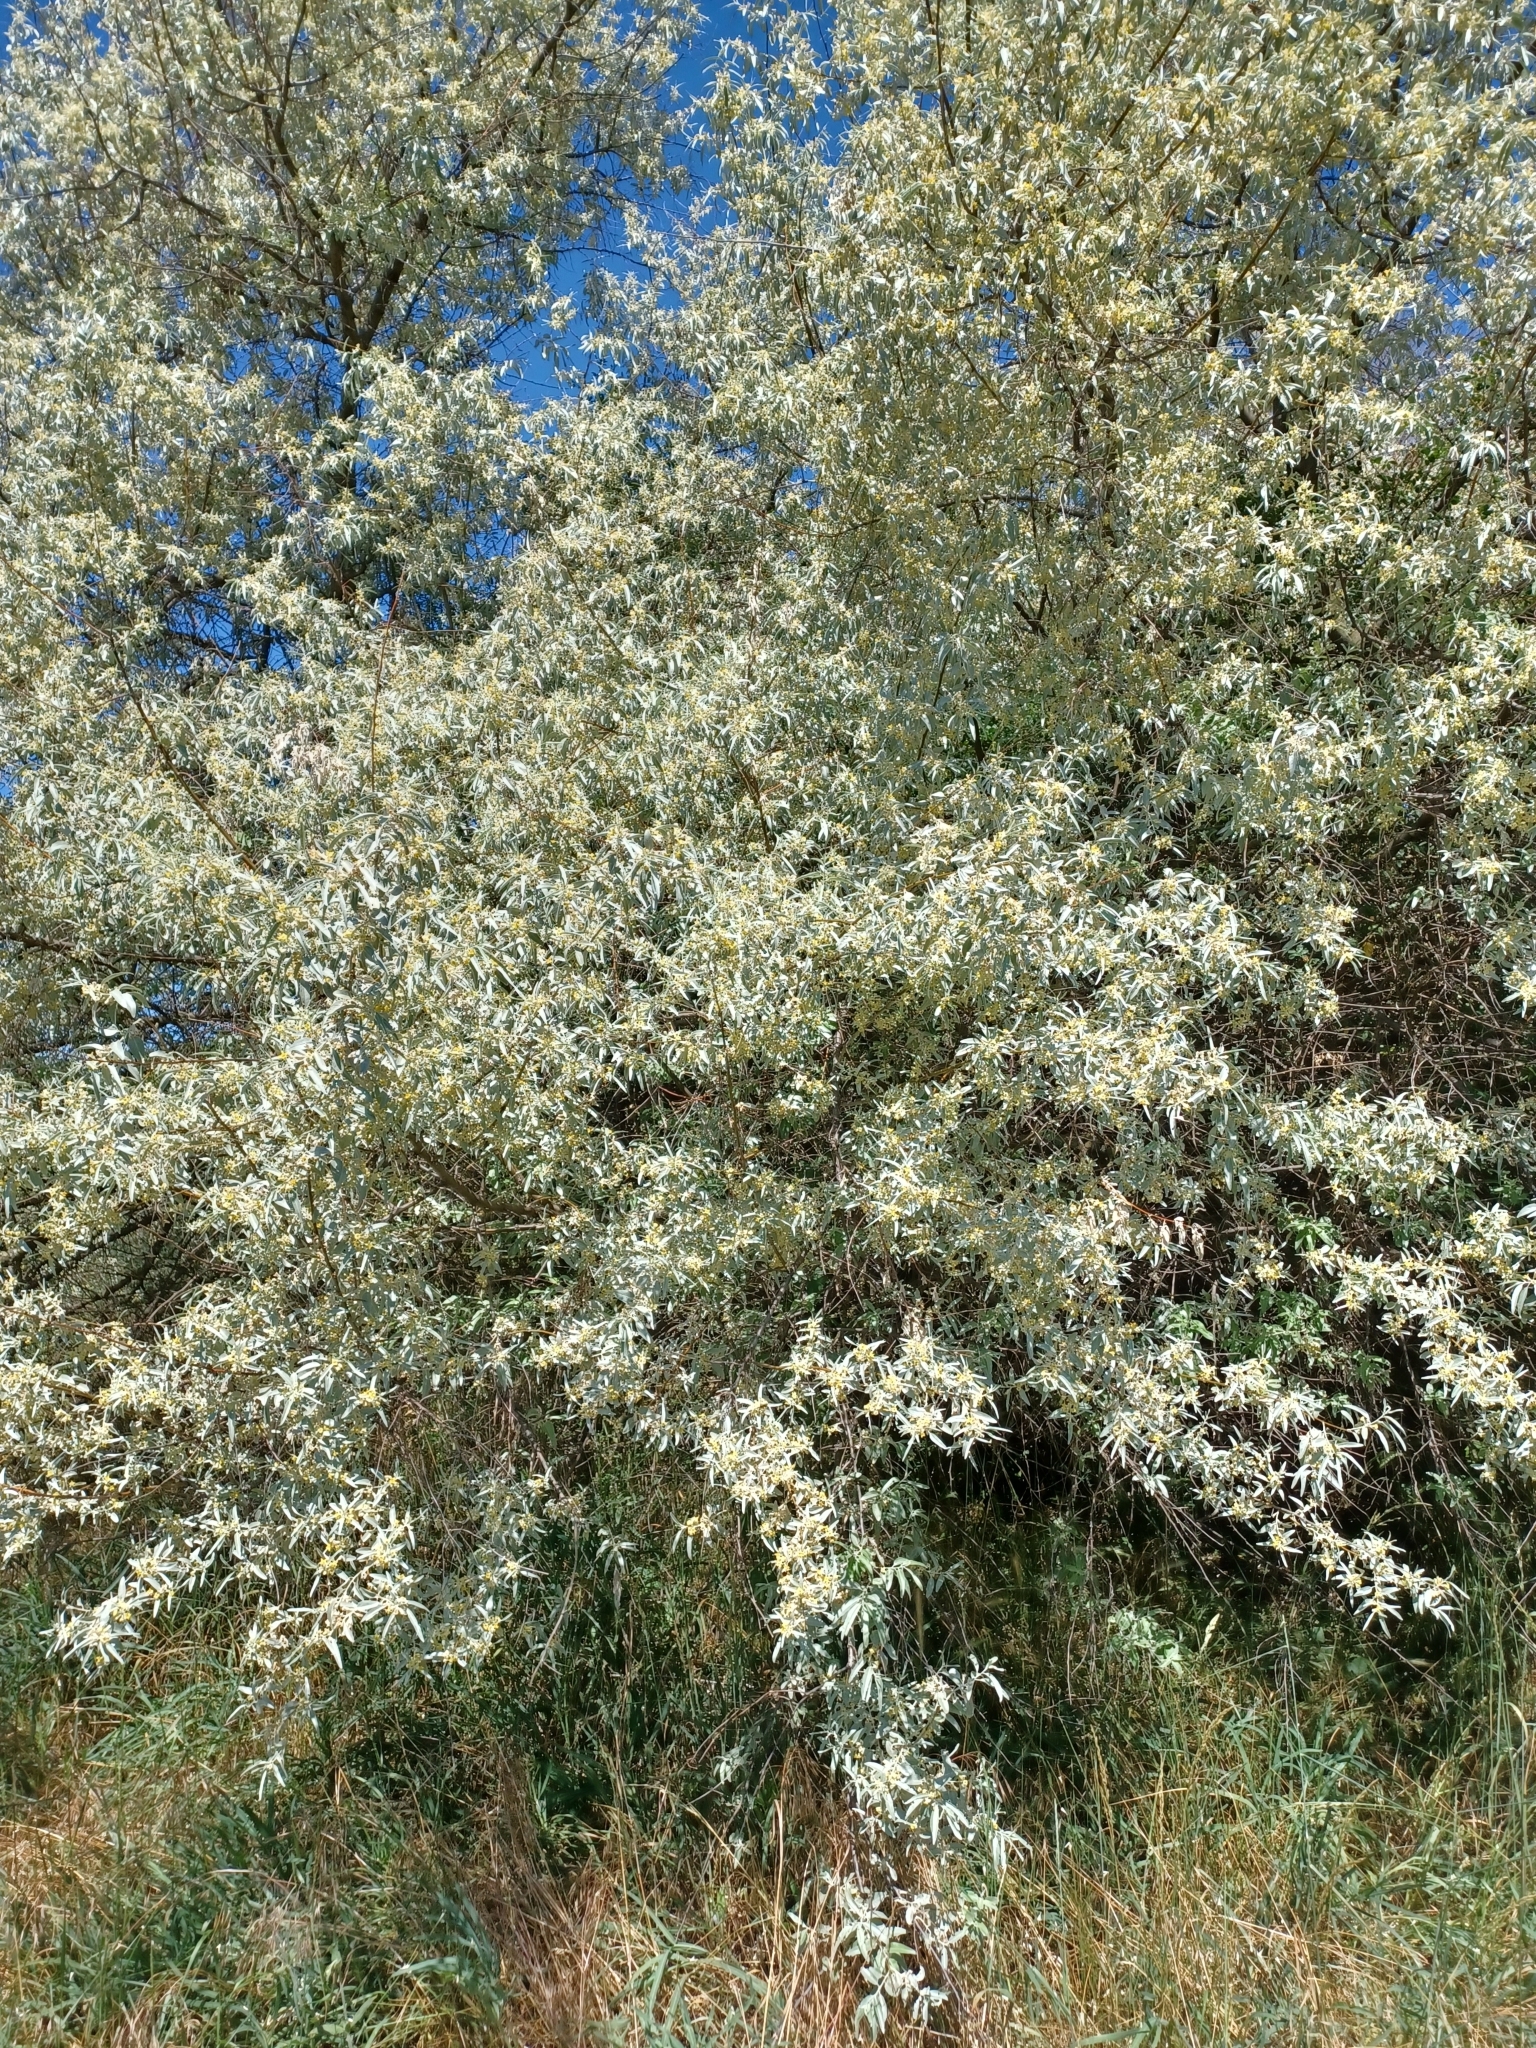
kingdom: Plantae
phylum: Tracheophyta
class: Magnoliopsida
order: Rosales
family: Elaeagnaceae
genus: Elaeagnus
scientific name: Elaeagnus angustifolia
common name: Russian olive
